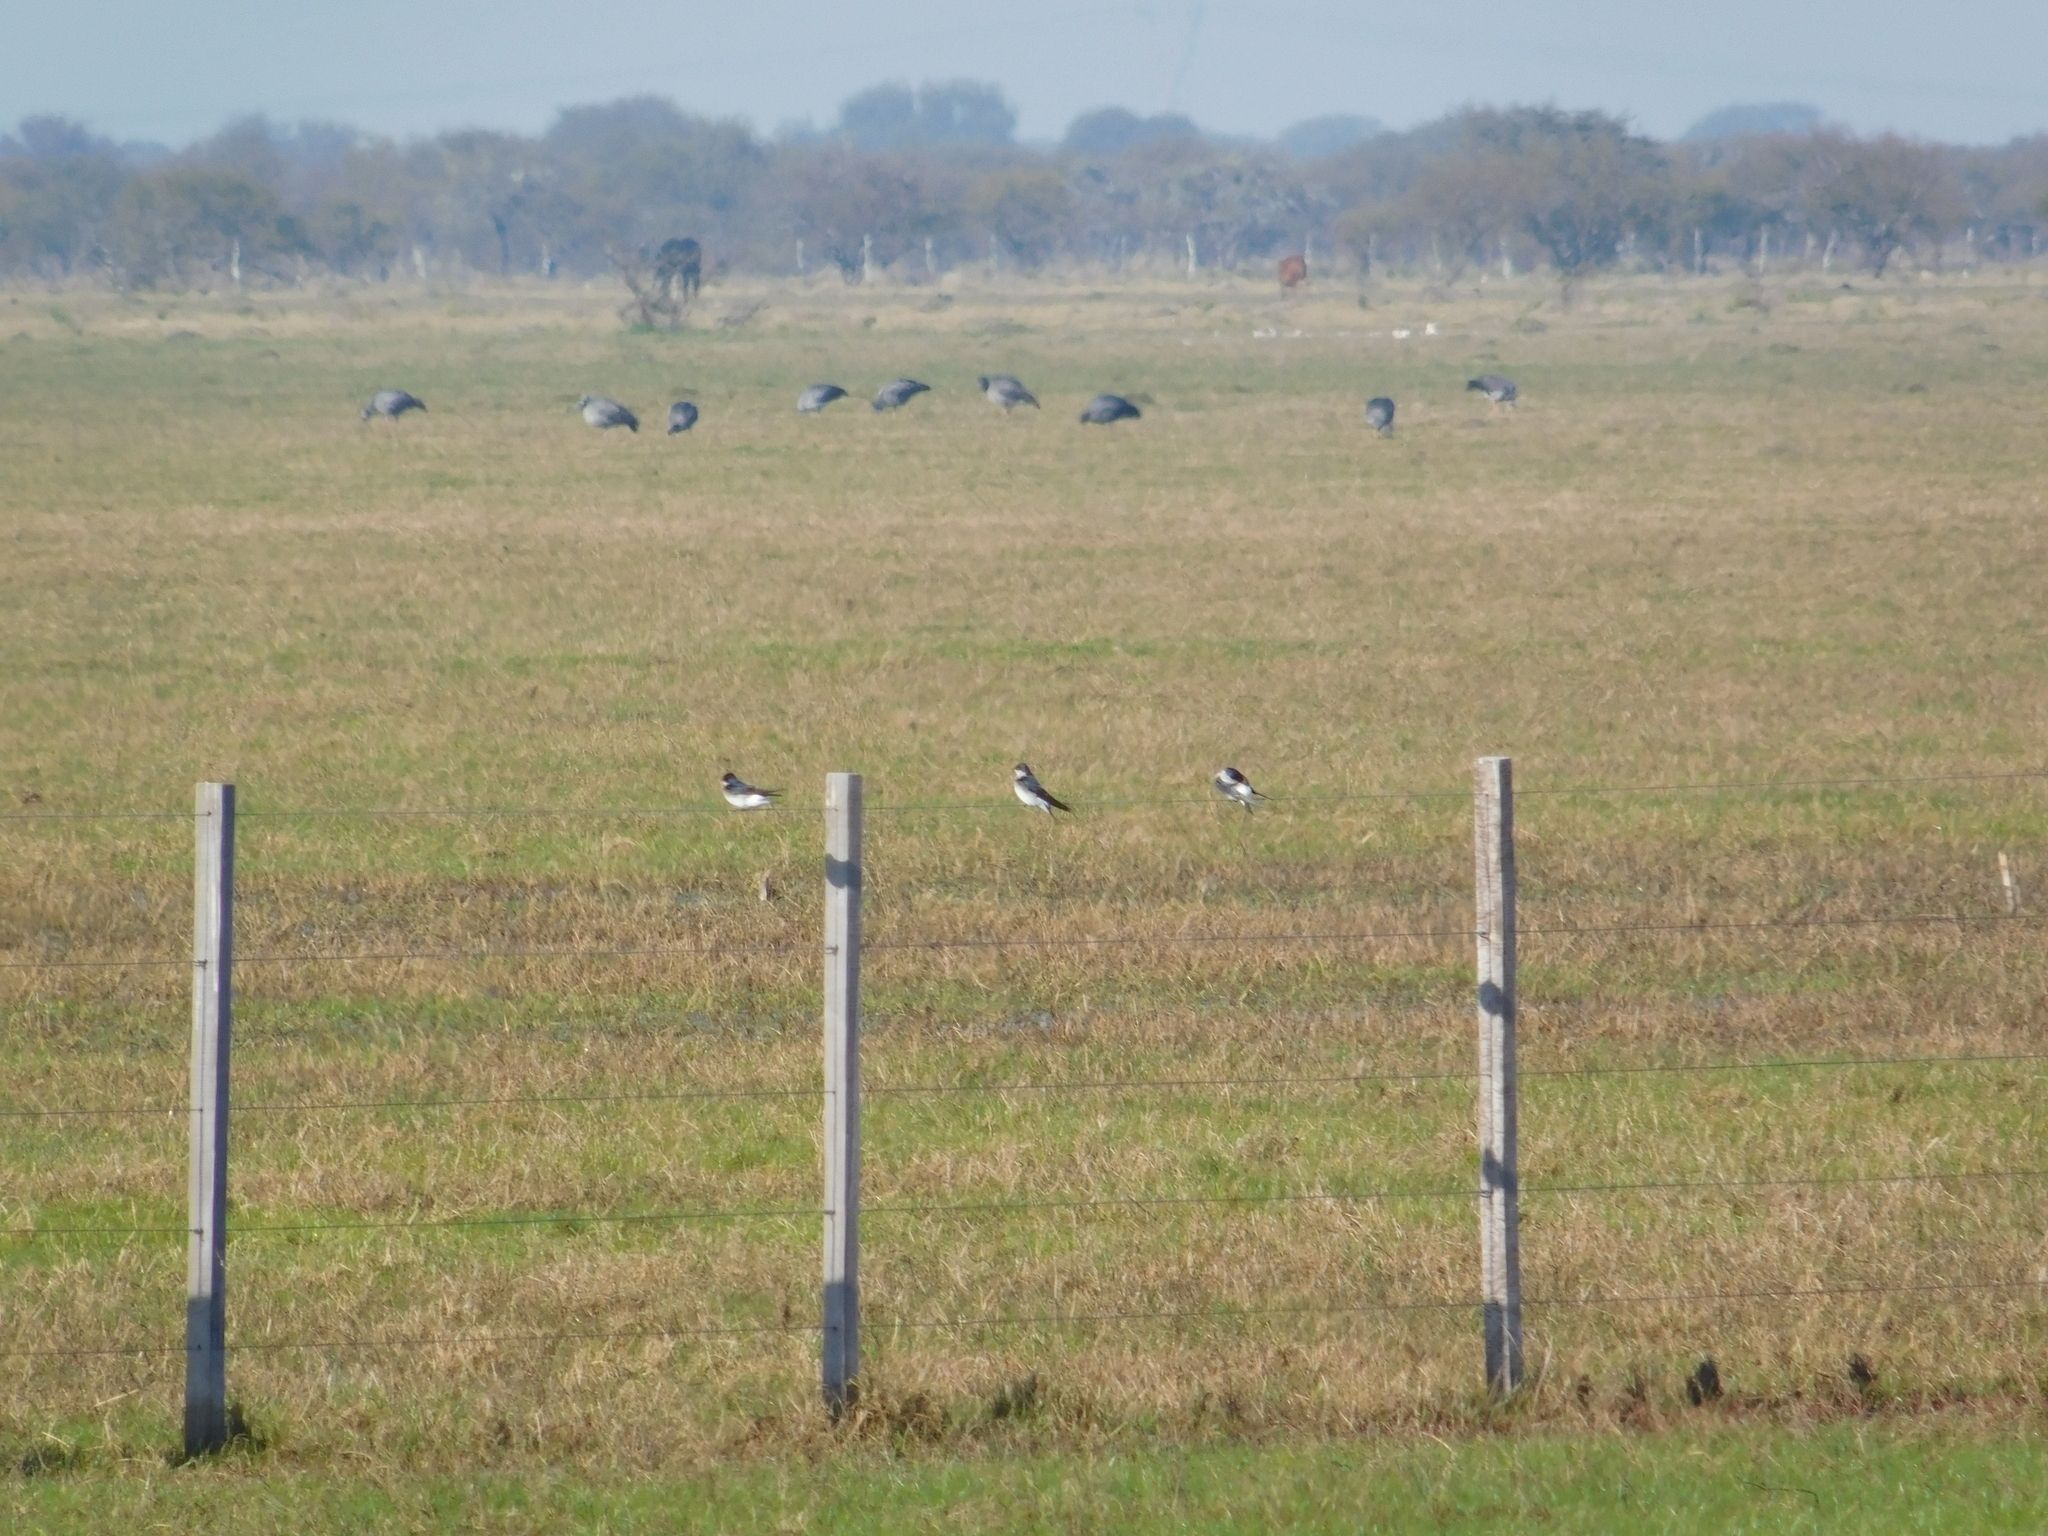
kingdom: Animalia
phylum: Chordata
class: Aves
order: Passeriformes
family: Hirundinidae
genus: Tachycineta
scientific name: Tachycineta leucopyga
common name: Chilean swallow
